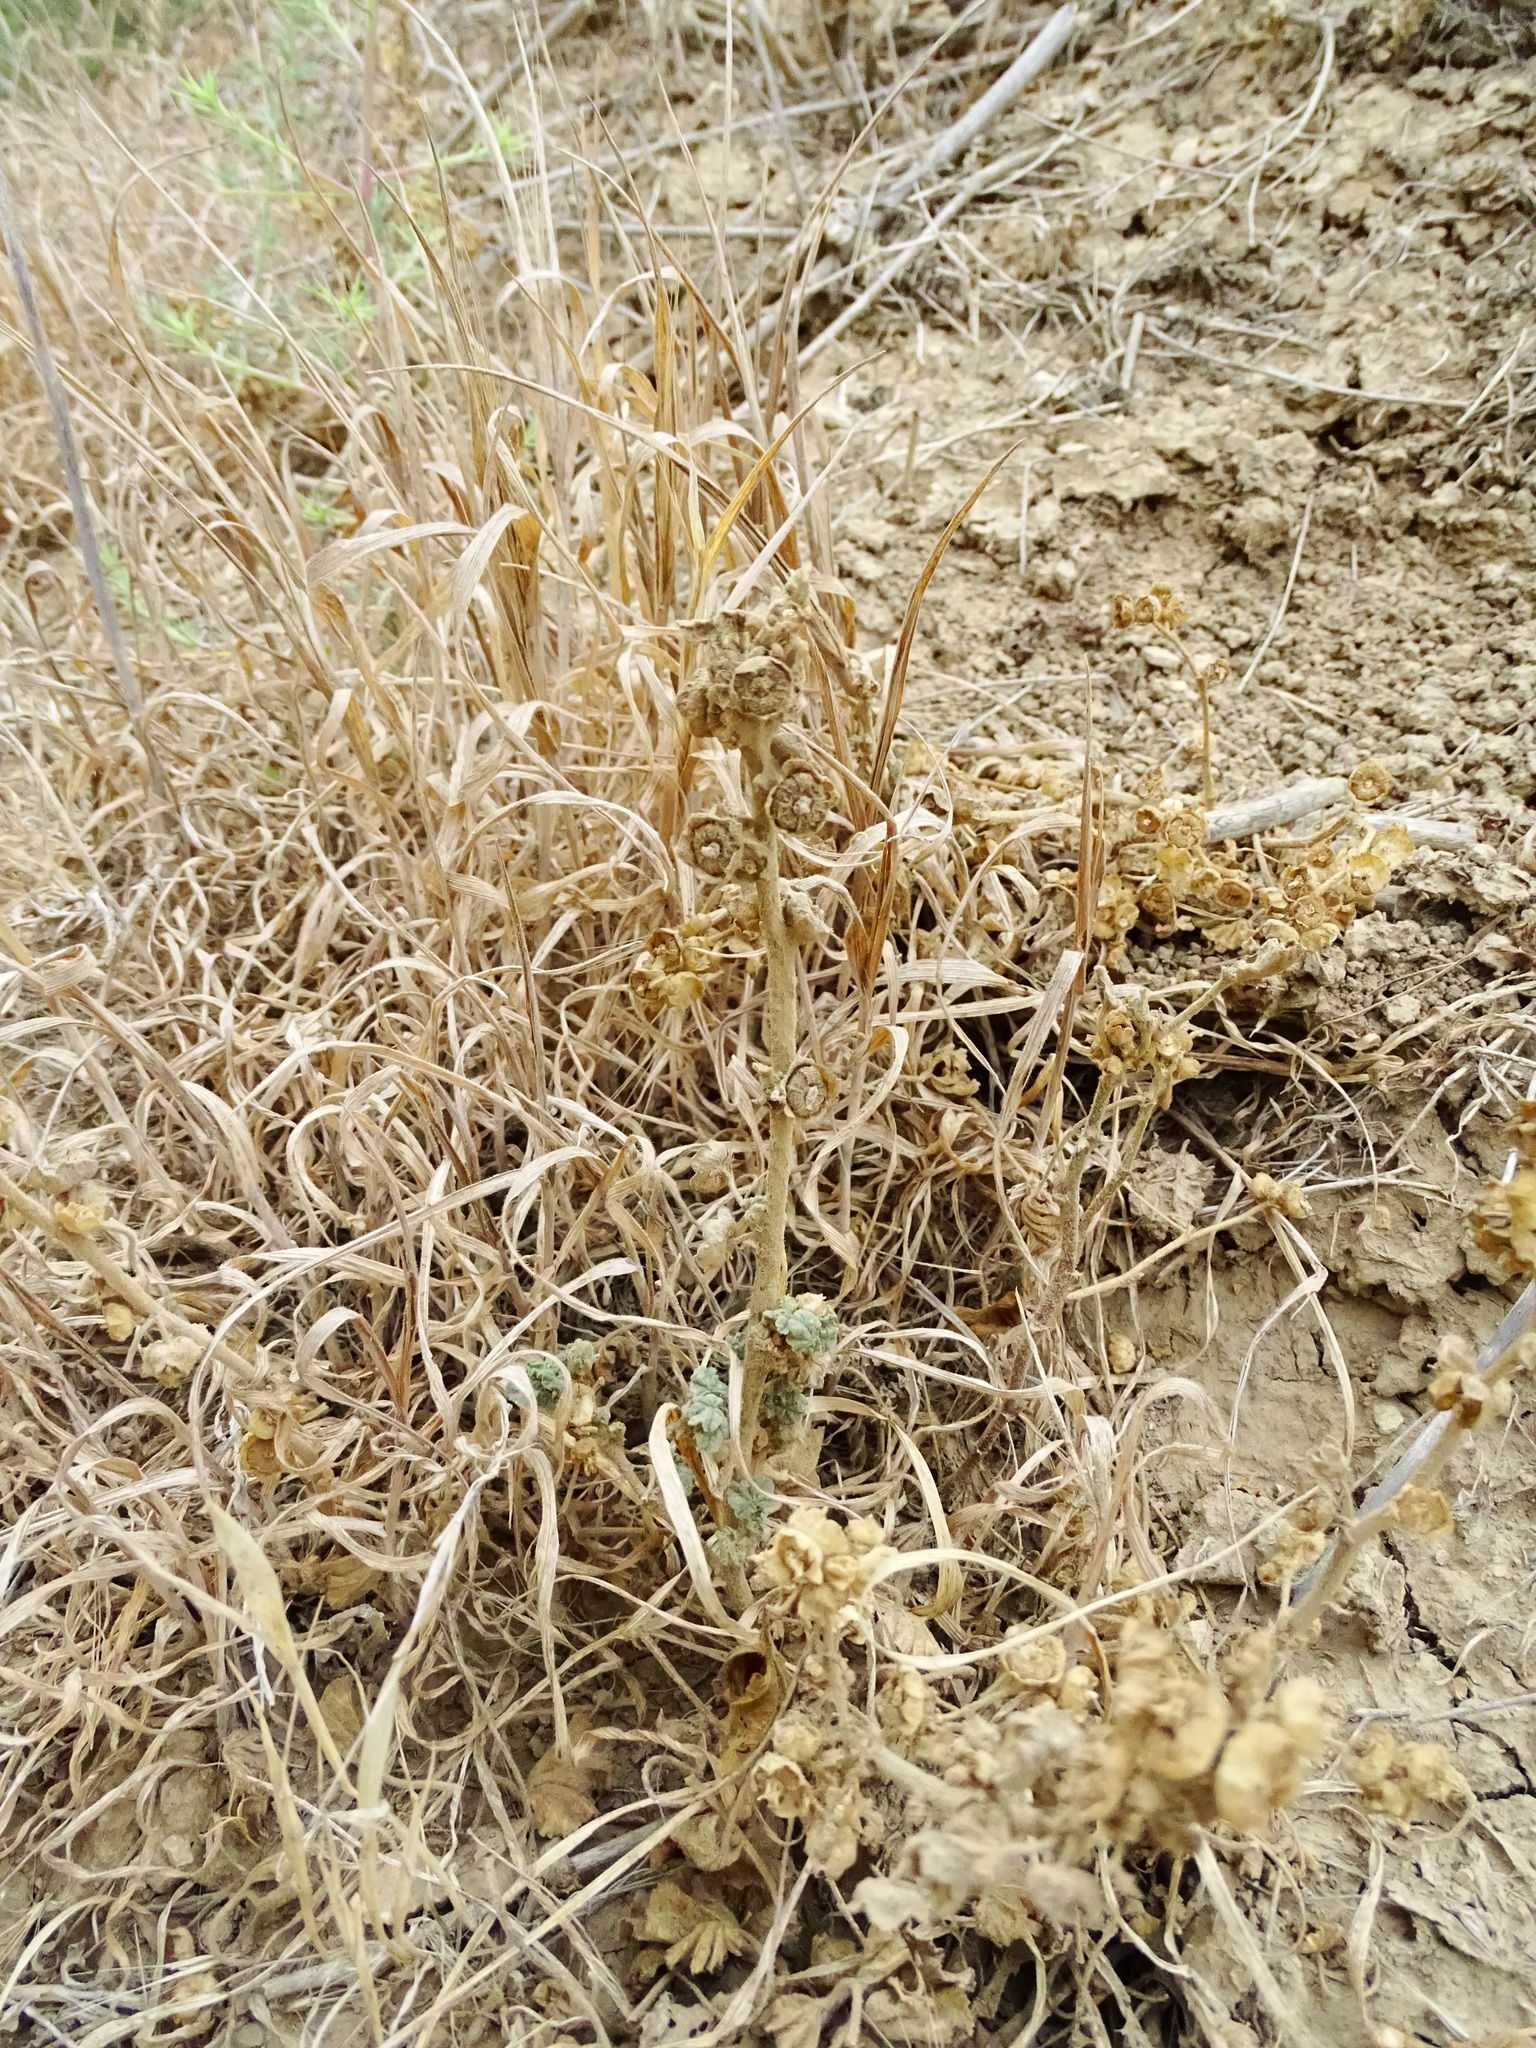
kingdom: Plantae
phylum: Tracheophyta
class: Magnoliopsida
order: Malvales
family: Malvaceae
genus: Malva
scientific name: Malva parviflora
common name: Least mallow
